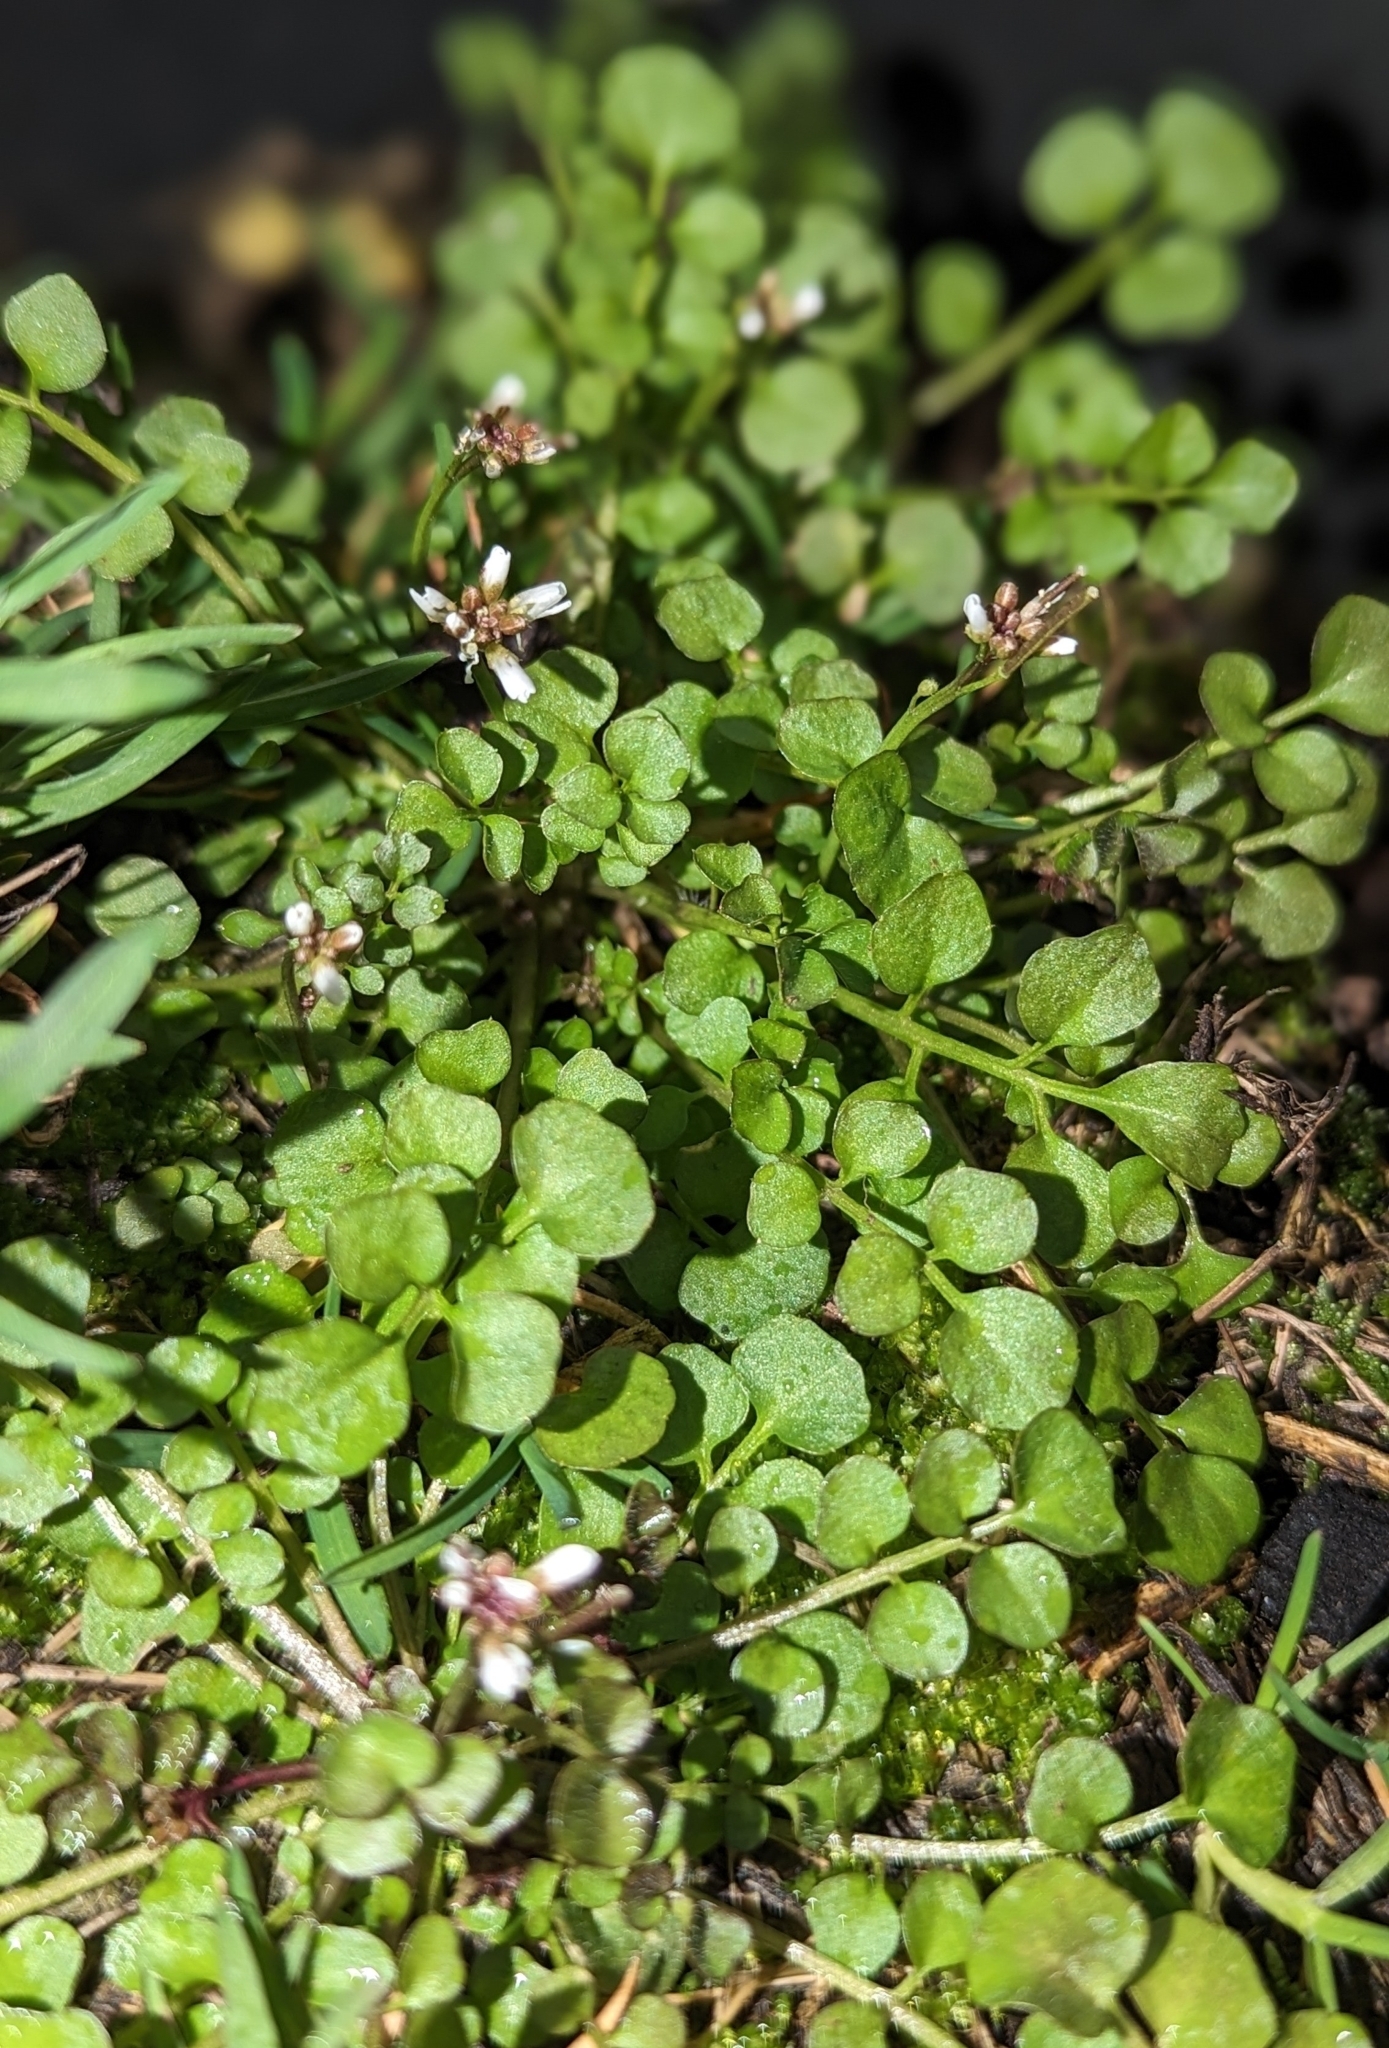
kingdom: Plantae
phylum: Tracheophyta
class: Magnoliopsida
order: Brassicales
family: Brassicaceae
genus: Cardamine
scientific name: Cardamine hirsuta
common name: Hairy bittercress
